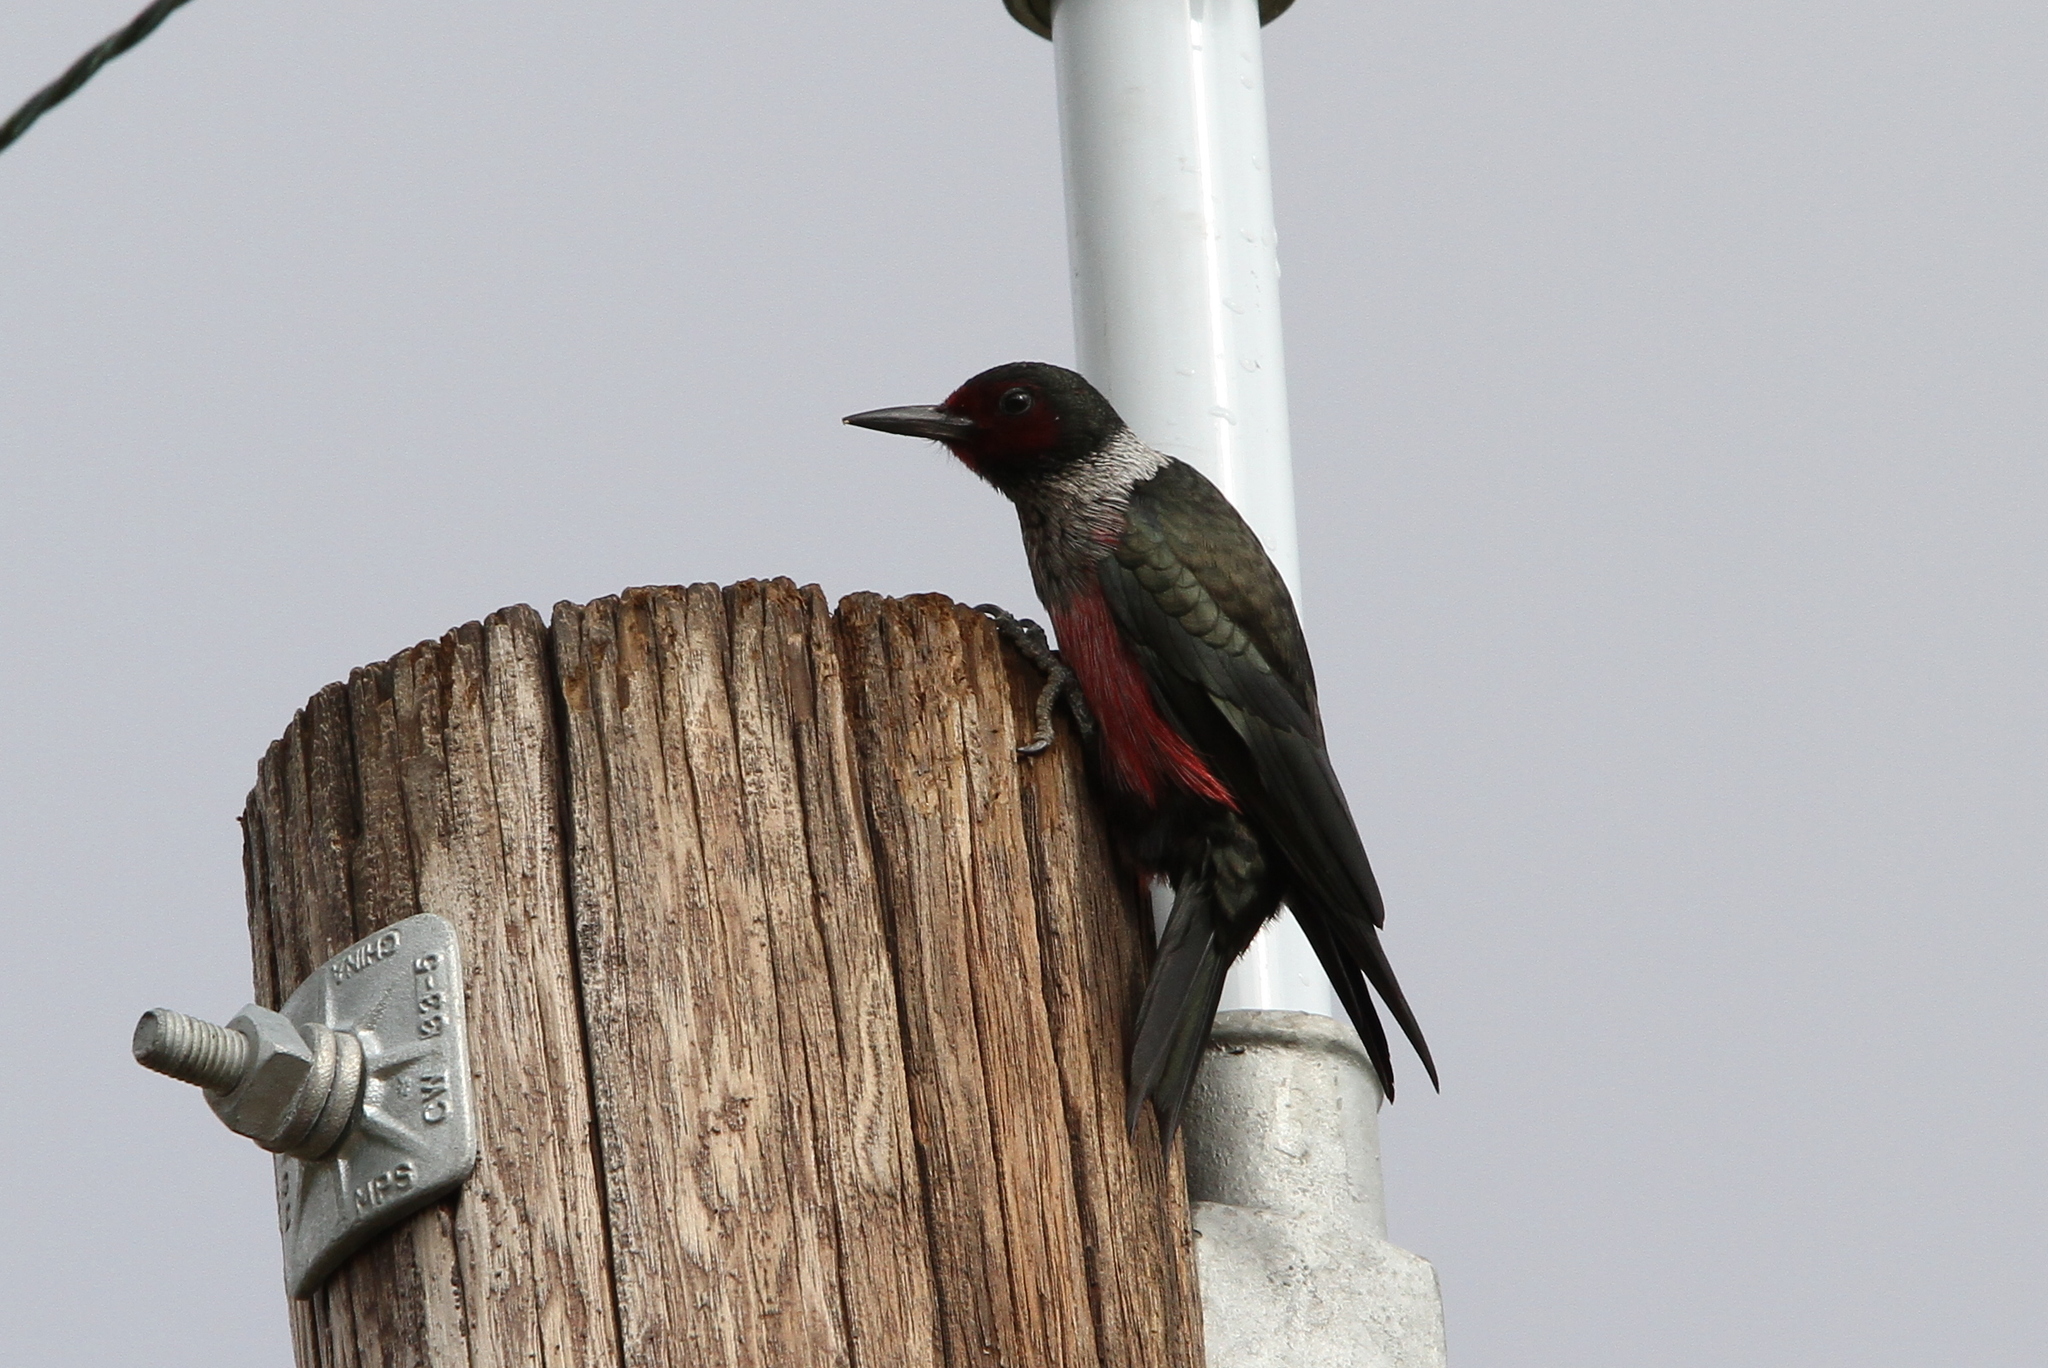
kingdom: Animalia
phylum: Chordata
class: Aves
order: Piciformes
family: Picidae
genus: Melanerpes
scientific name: Melanerpes lewis
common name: Lewis's woodpecker
